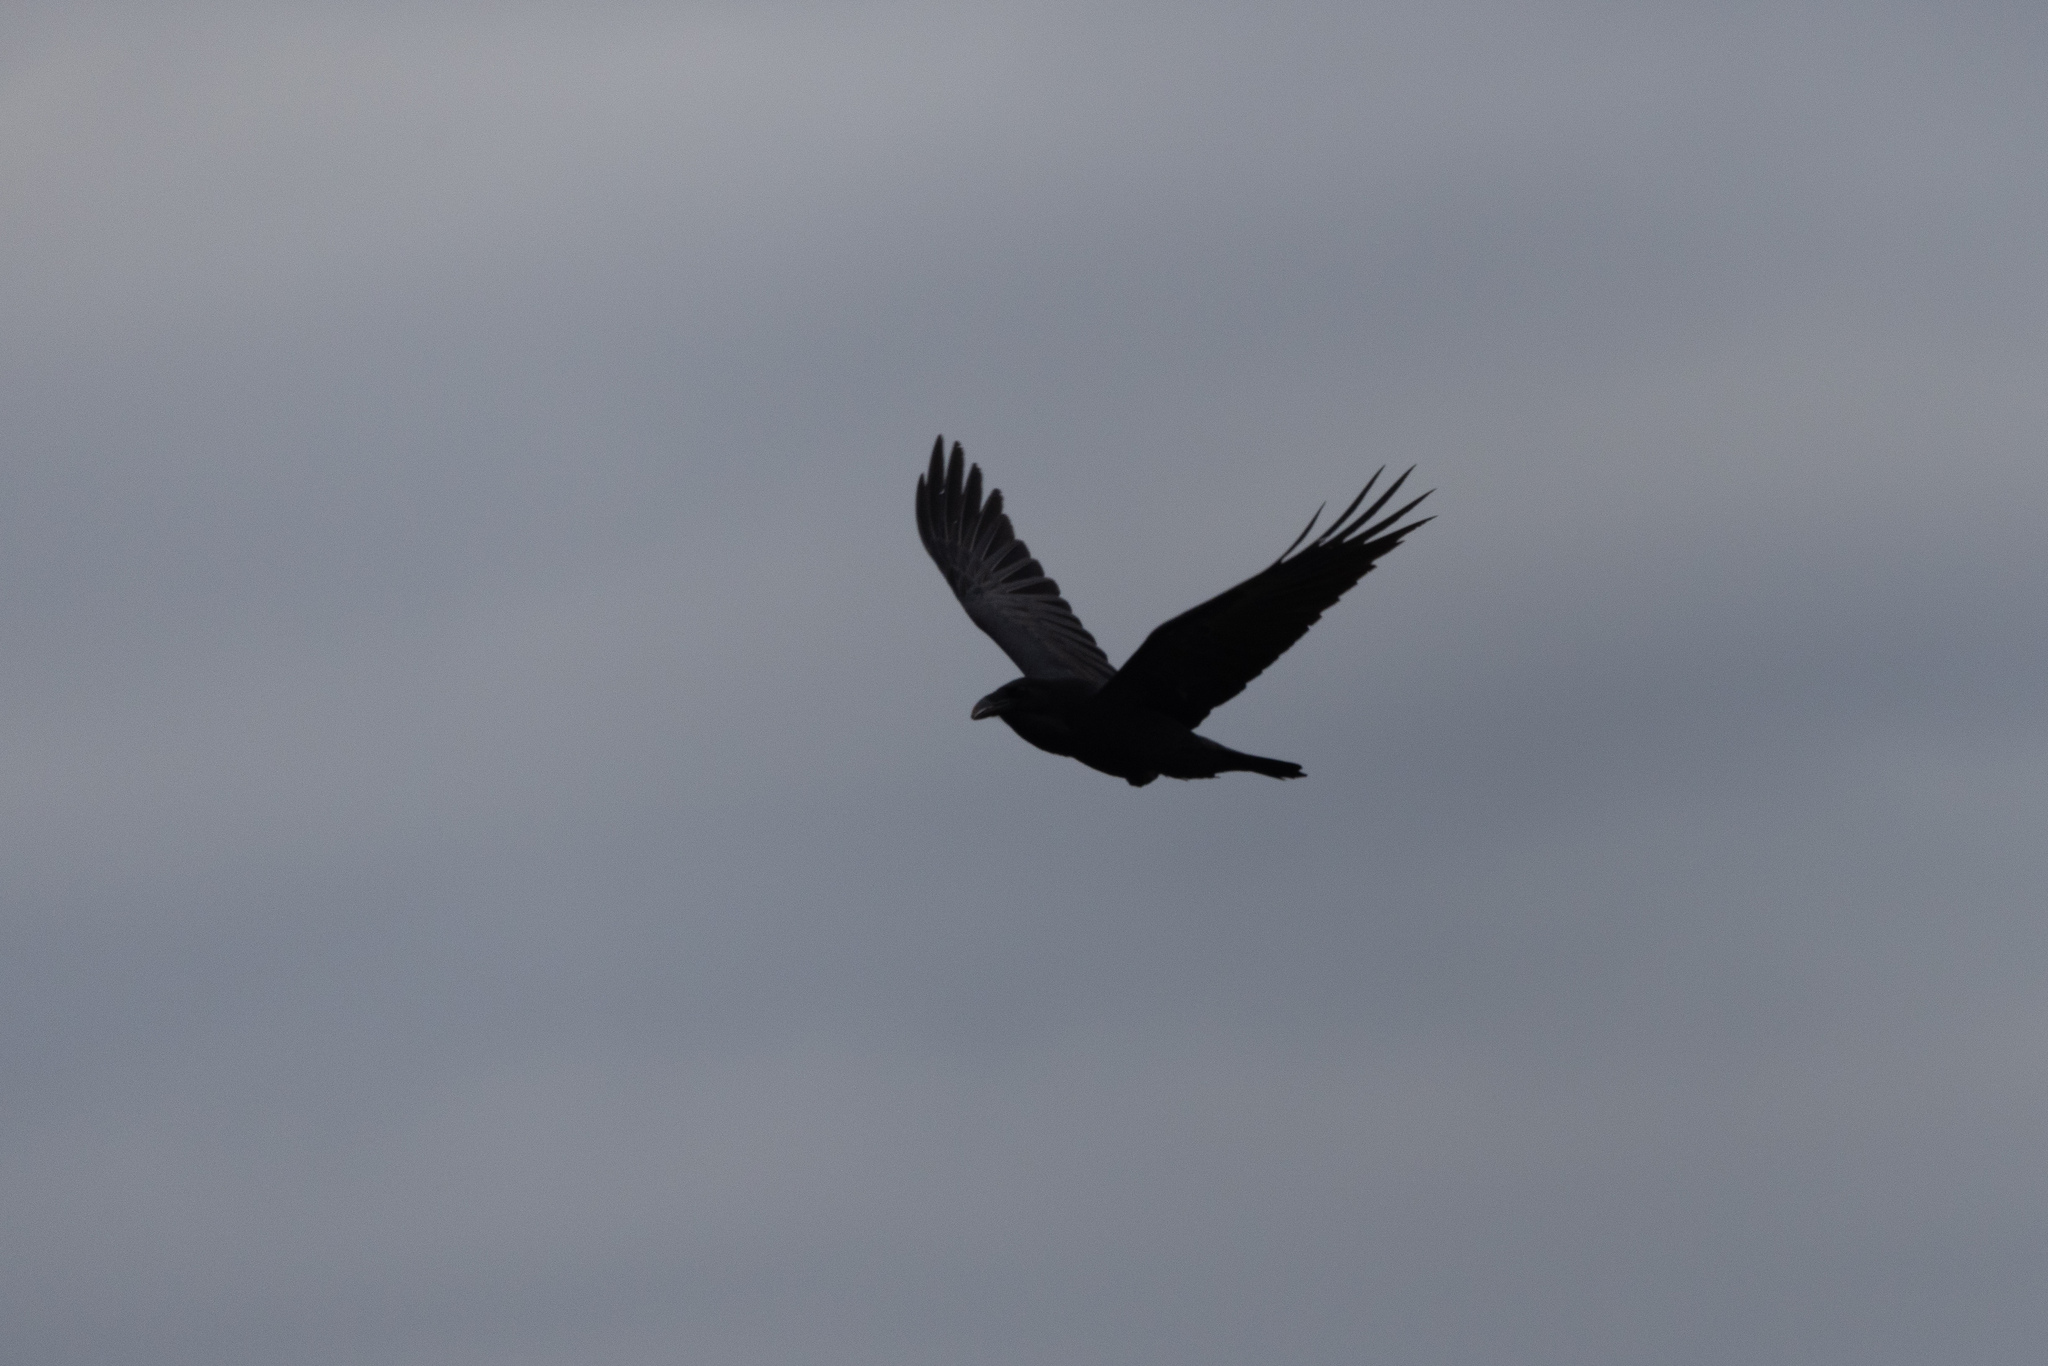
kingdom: Animalia
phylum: Chordata
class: Aves
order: Passeriformes
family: Corvidae
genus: Corvus
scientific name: Corvus corax
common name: Common raven
